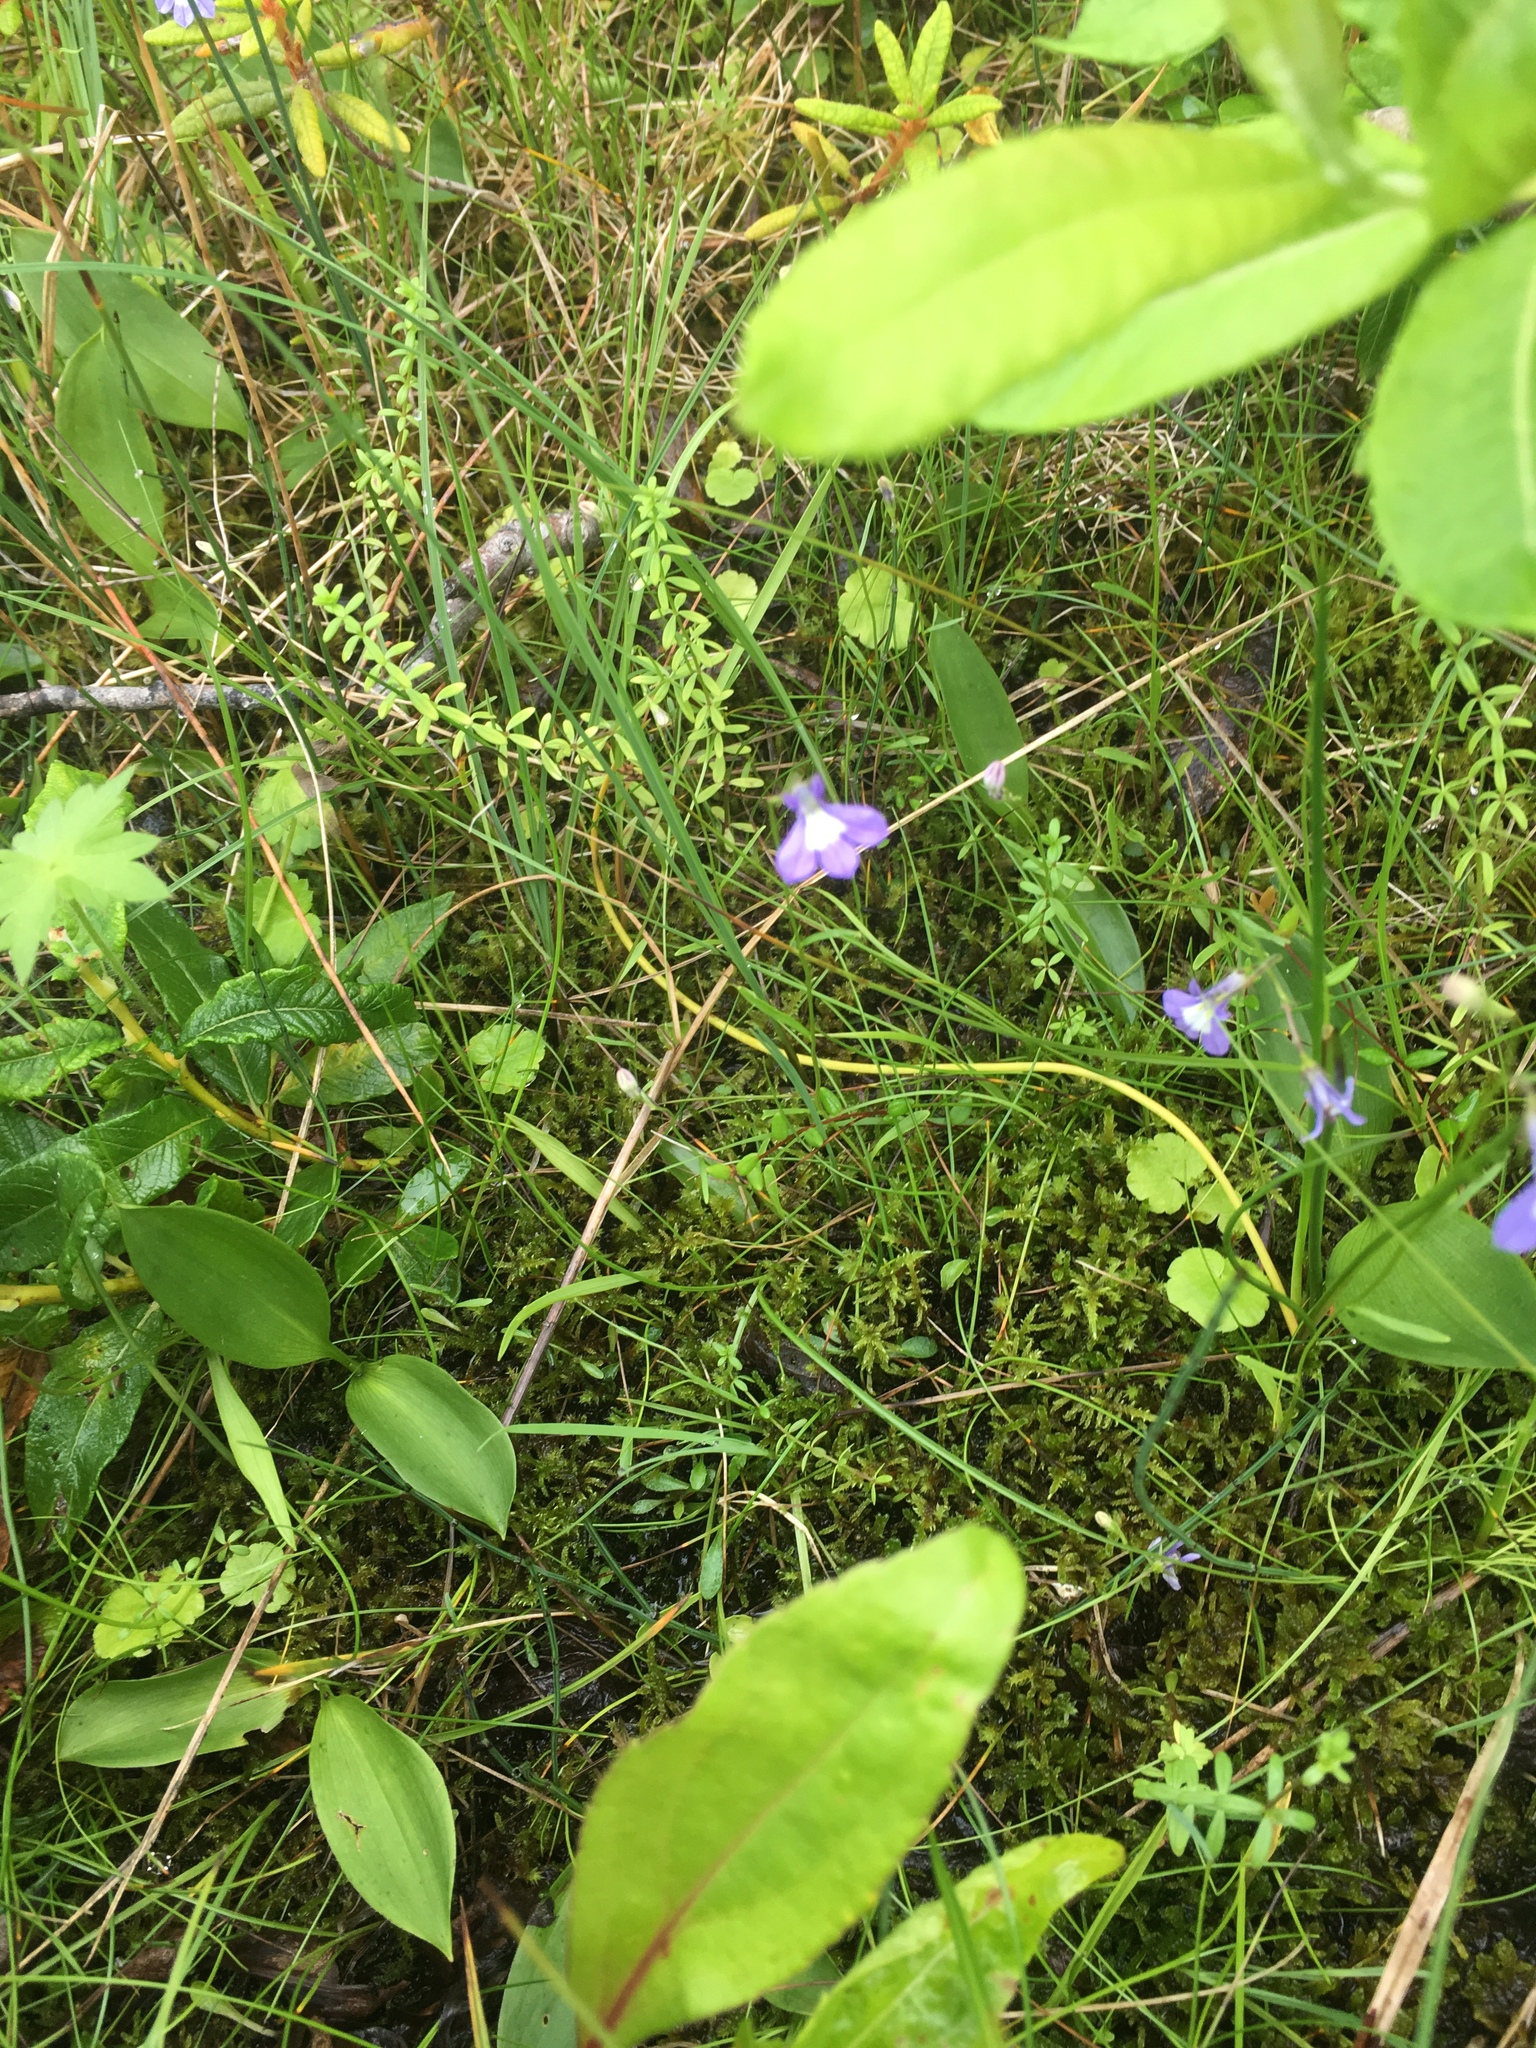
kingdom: Plantae
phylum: Tracheophyta
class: Magnoliopsida
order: Asterales
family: Campanulaceae
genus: Lobelia
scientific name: Lobelia kalmii
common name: Kalm's lobelia
